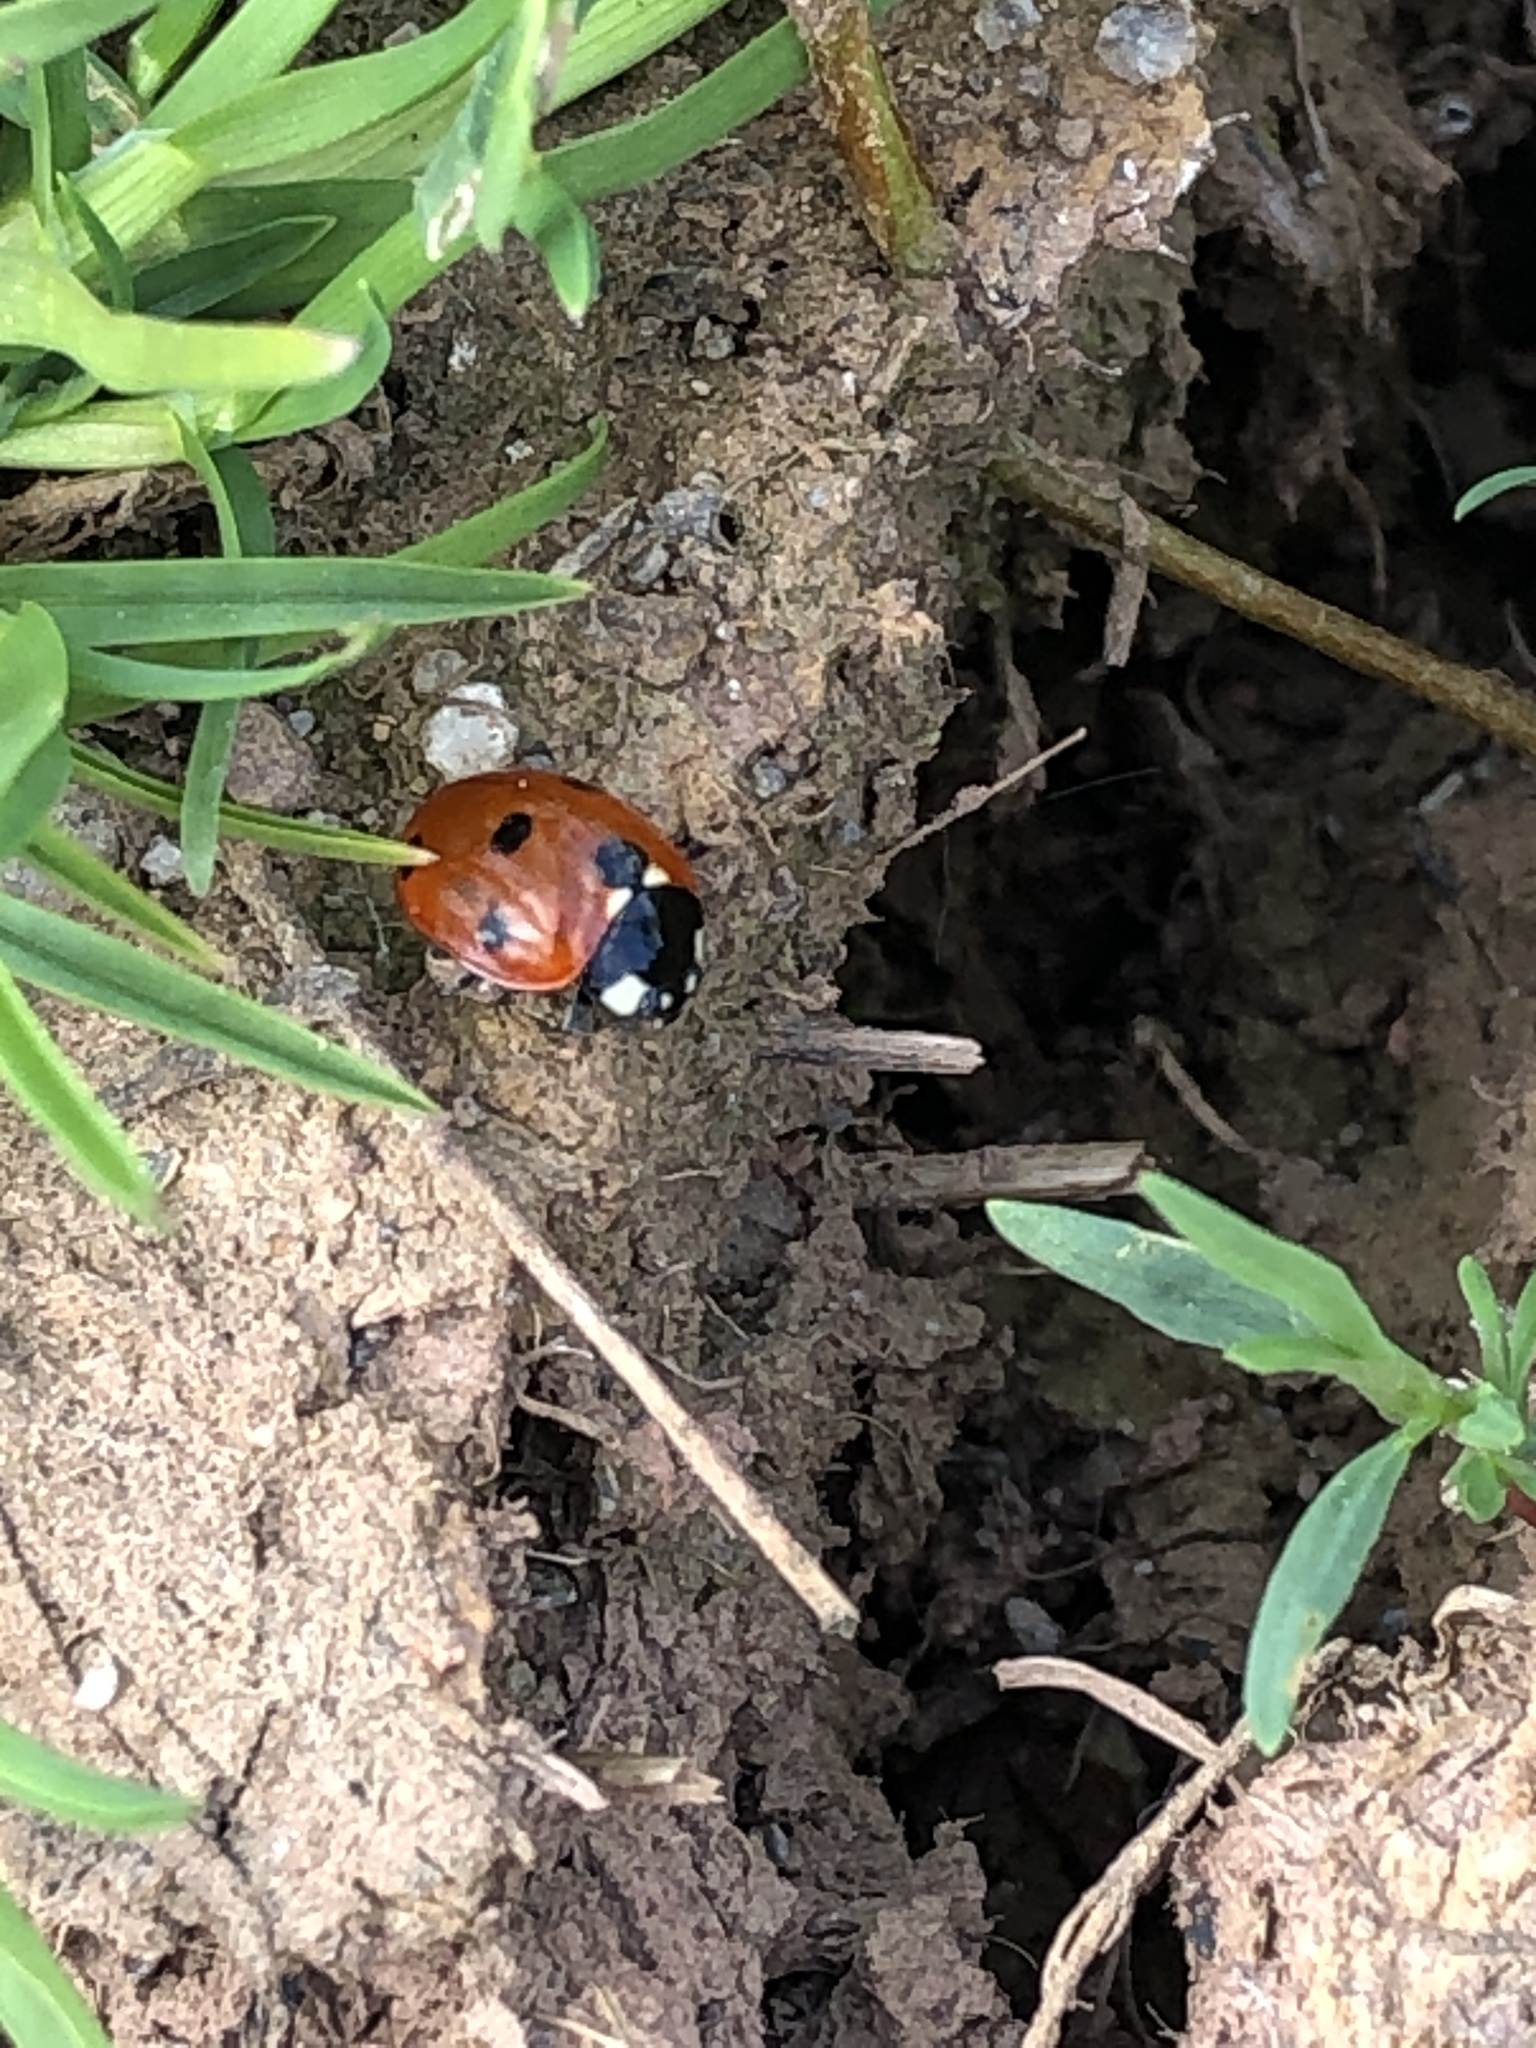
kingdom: Animalia
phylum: Arthropoda
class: Insecta
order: Coleoptera
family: Coccinellidae
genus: Coccinella
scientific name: Coccinella septempunctata
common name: Sevenspotted lady beetle
